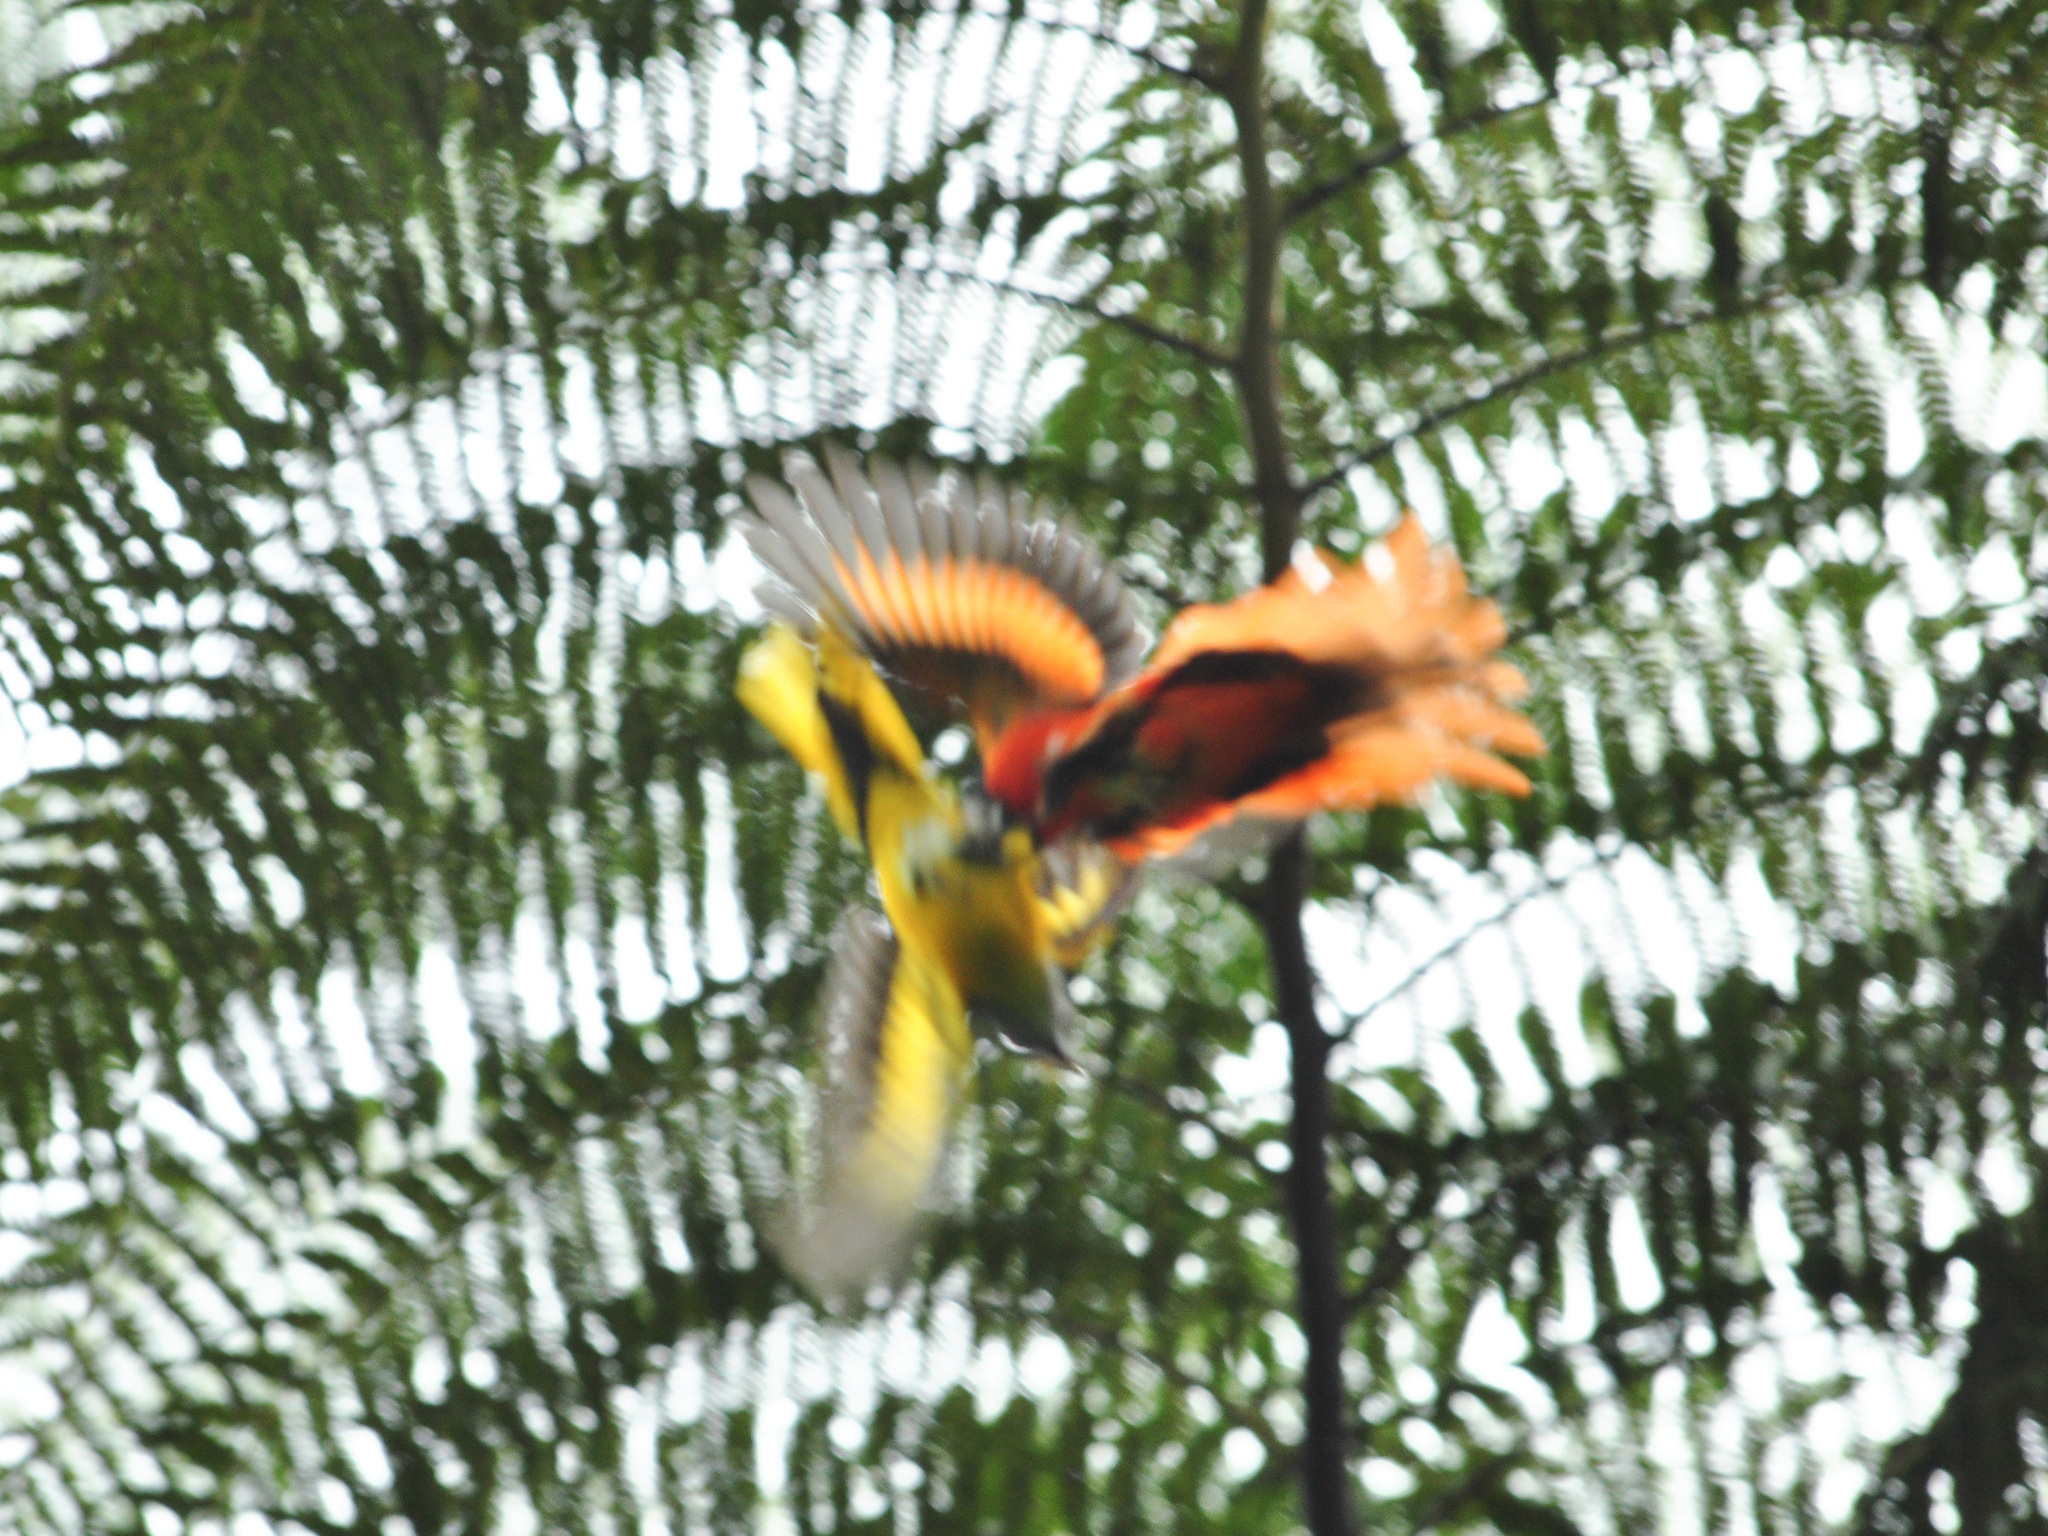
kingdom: Animalia
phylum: Chordata
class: Aves
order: Passeriformes
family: Campephagidae
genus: Pericrocotus
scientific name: Pericrocotus solaris
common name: Grey-chinned minivet
